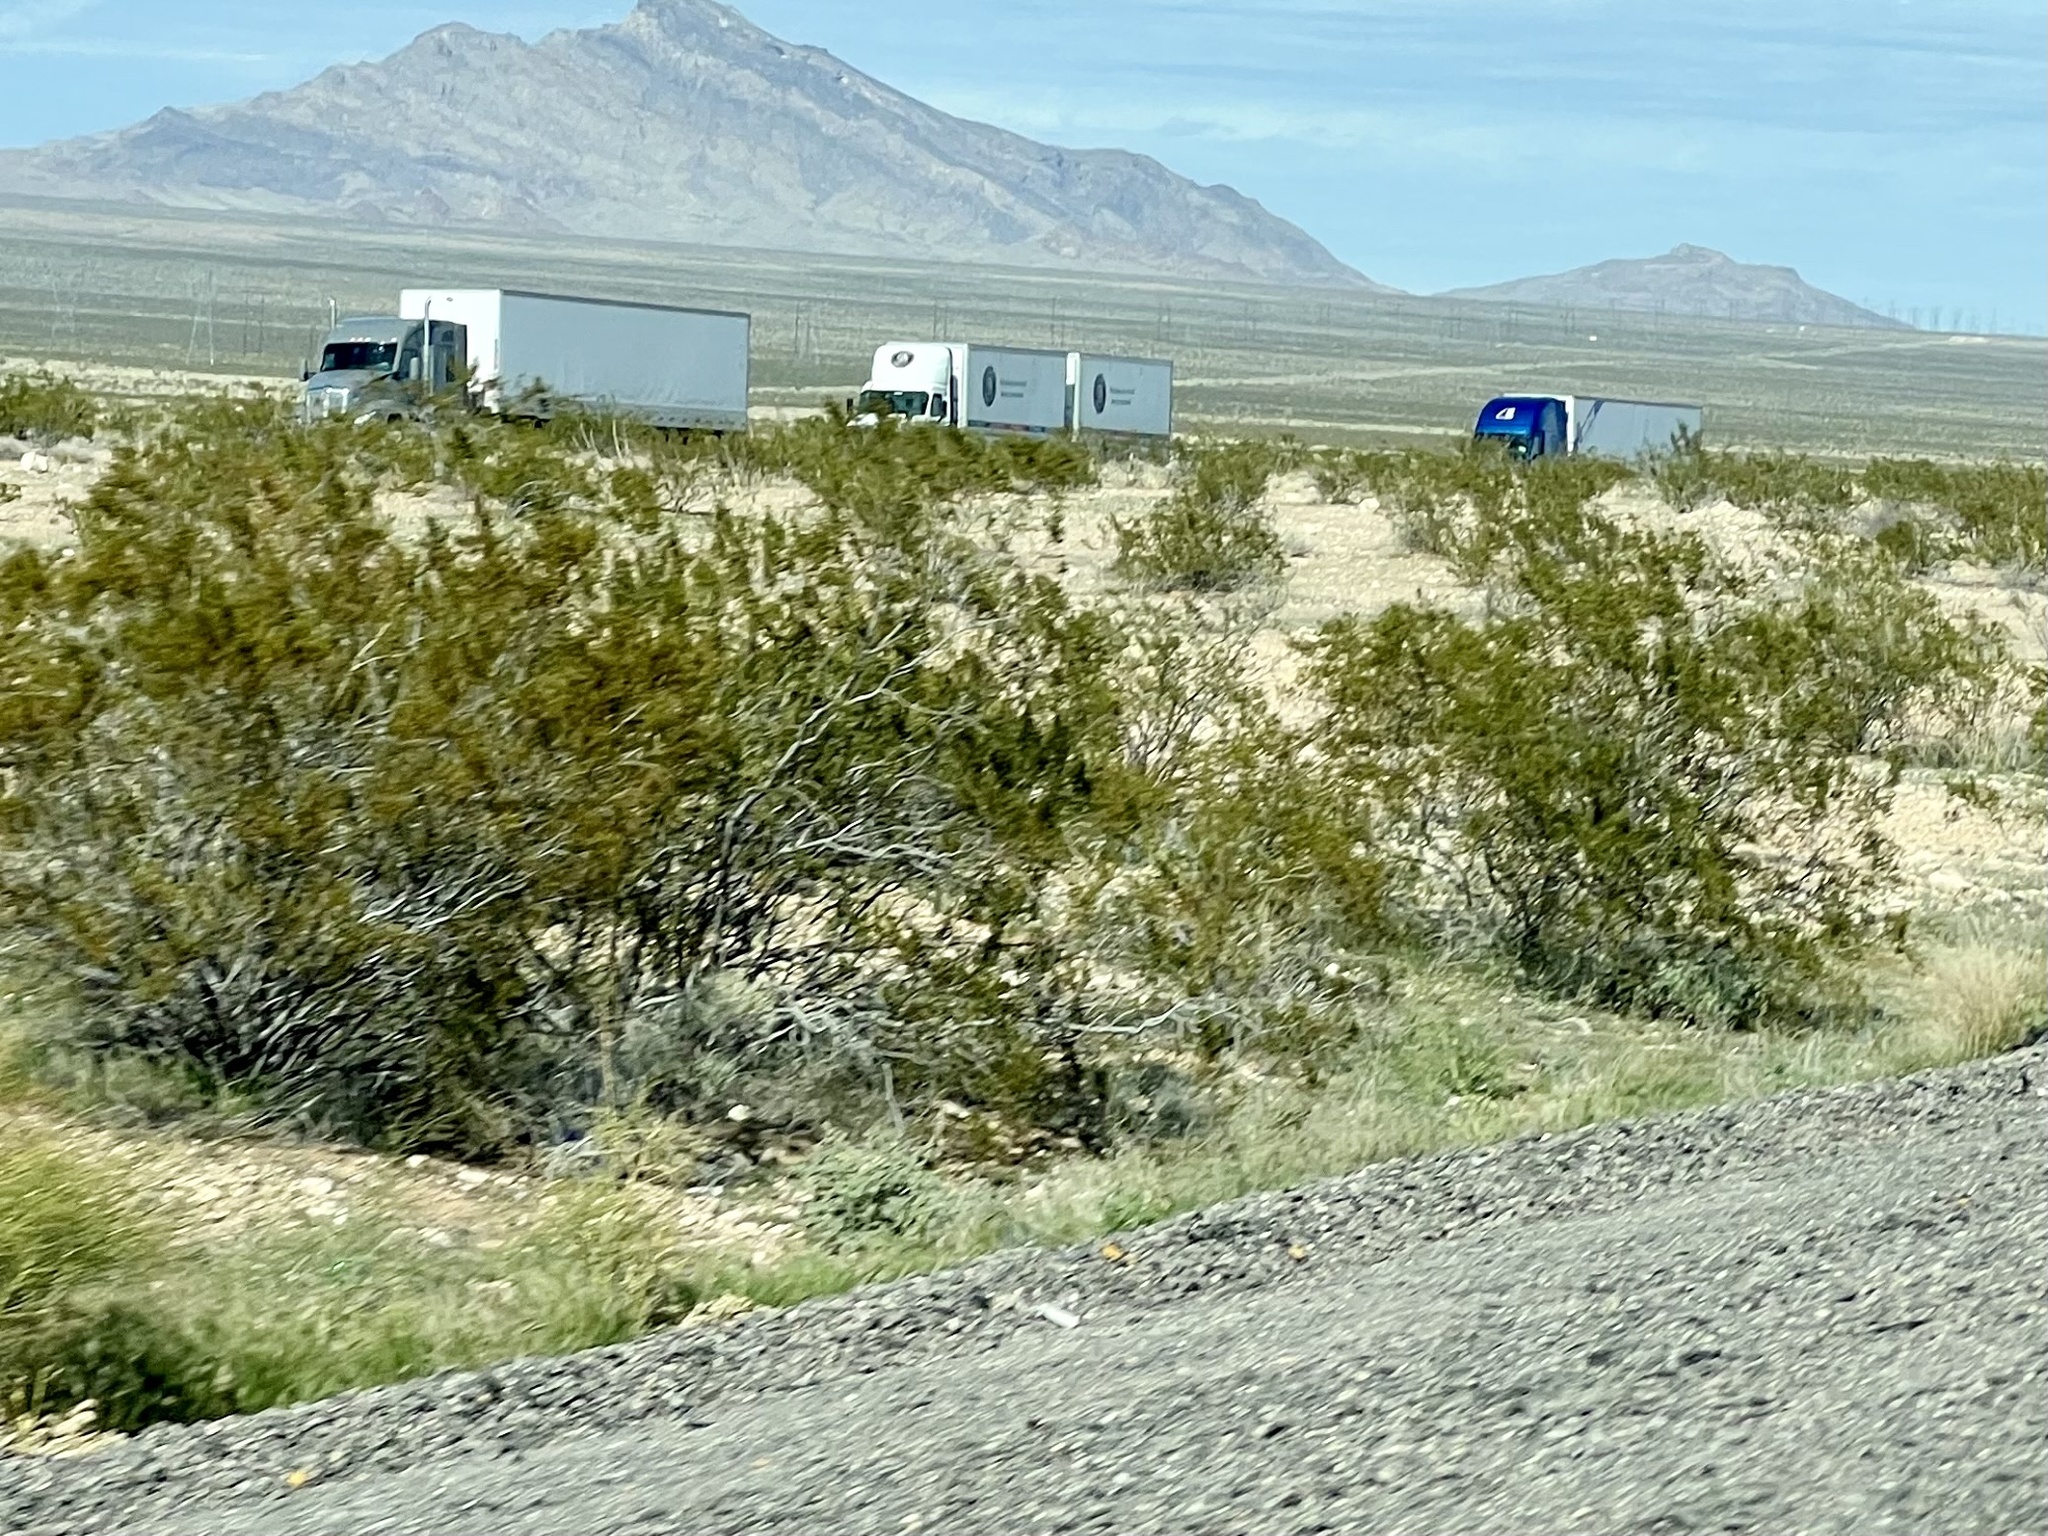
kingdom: Plantae
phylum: Tracheophyta
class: Magnoliopsida
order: Zygophyllales
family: Zygophyllaceae
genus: Larrea
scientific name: Larrea tridentata
